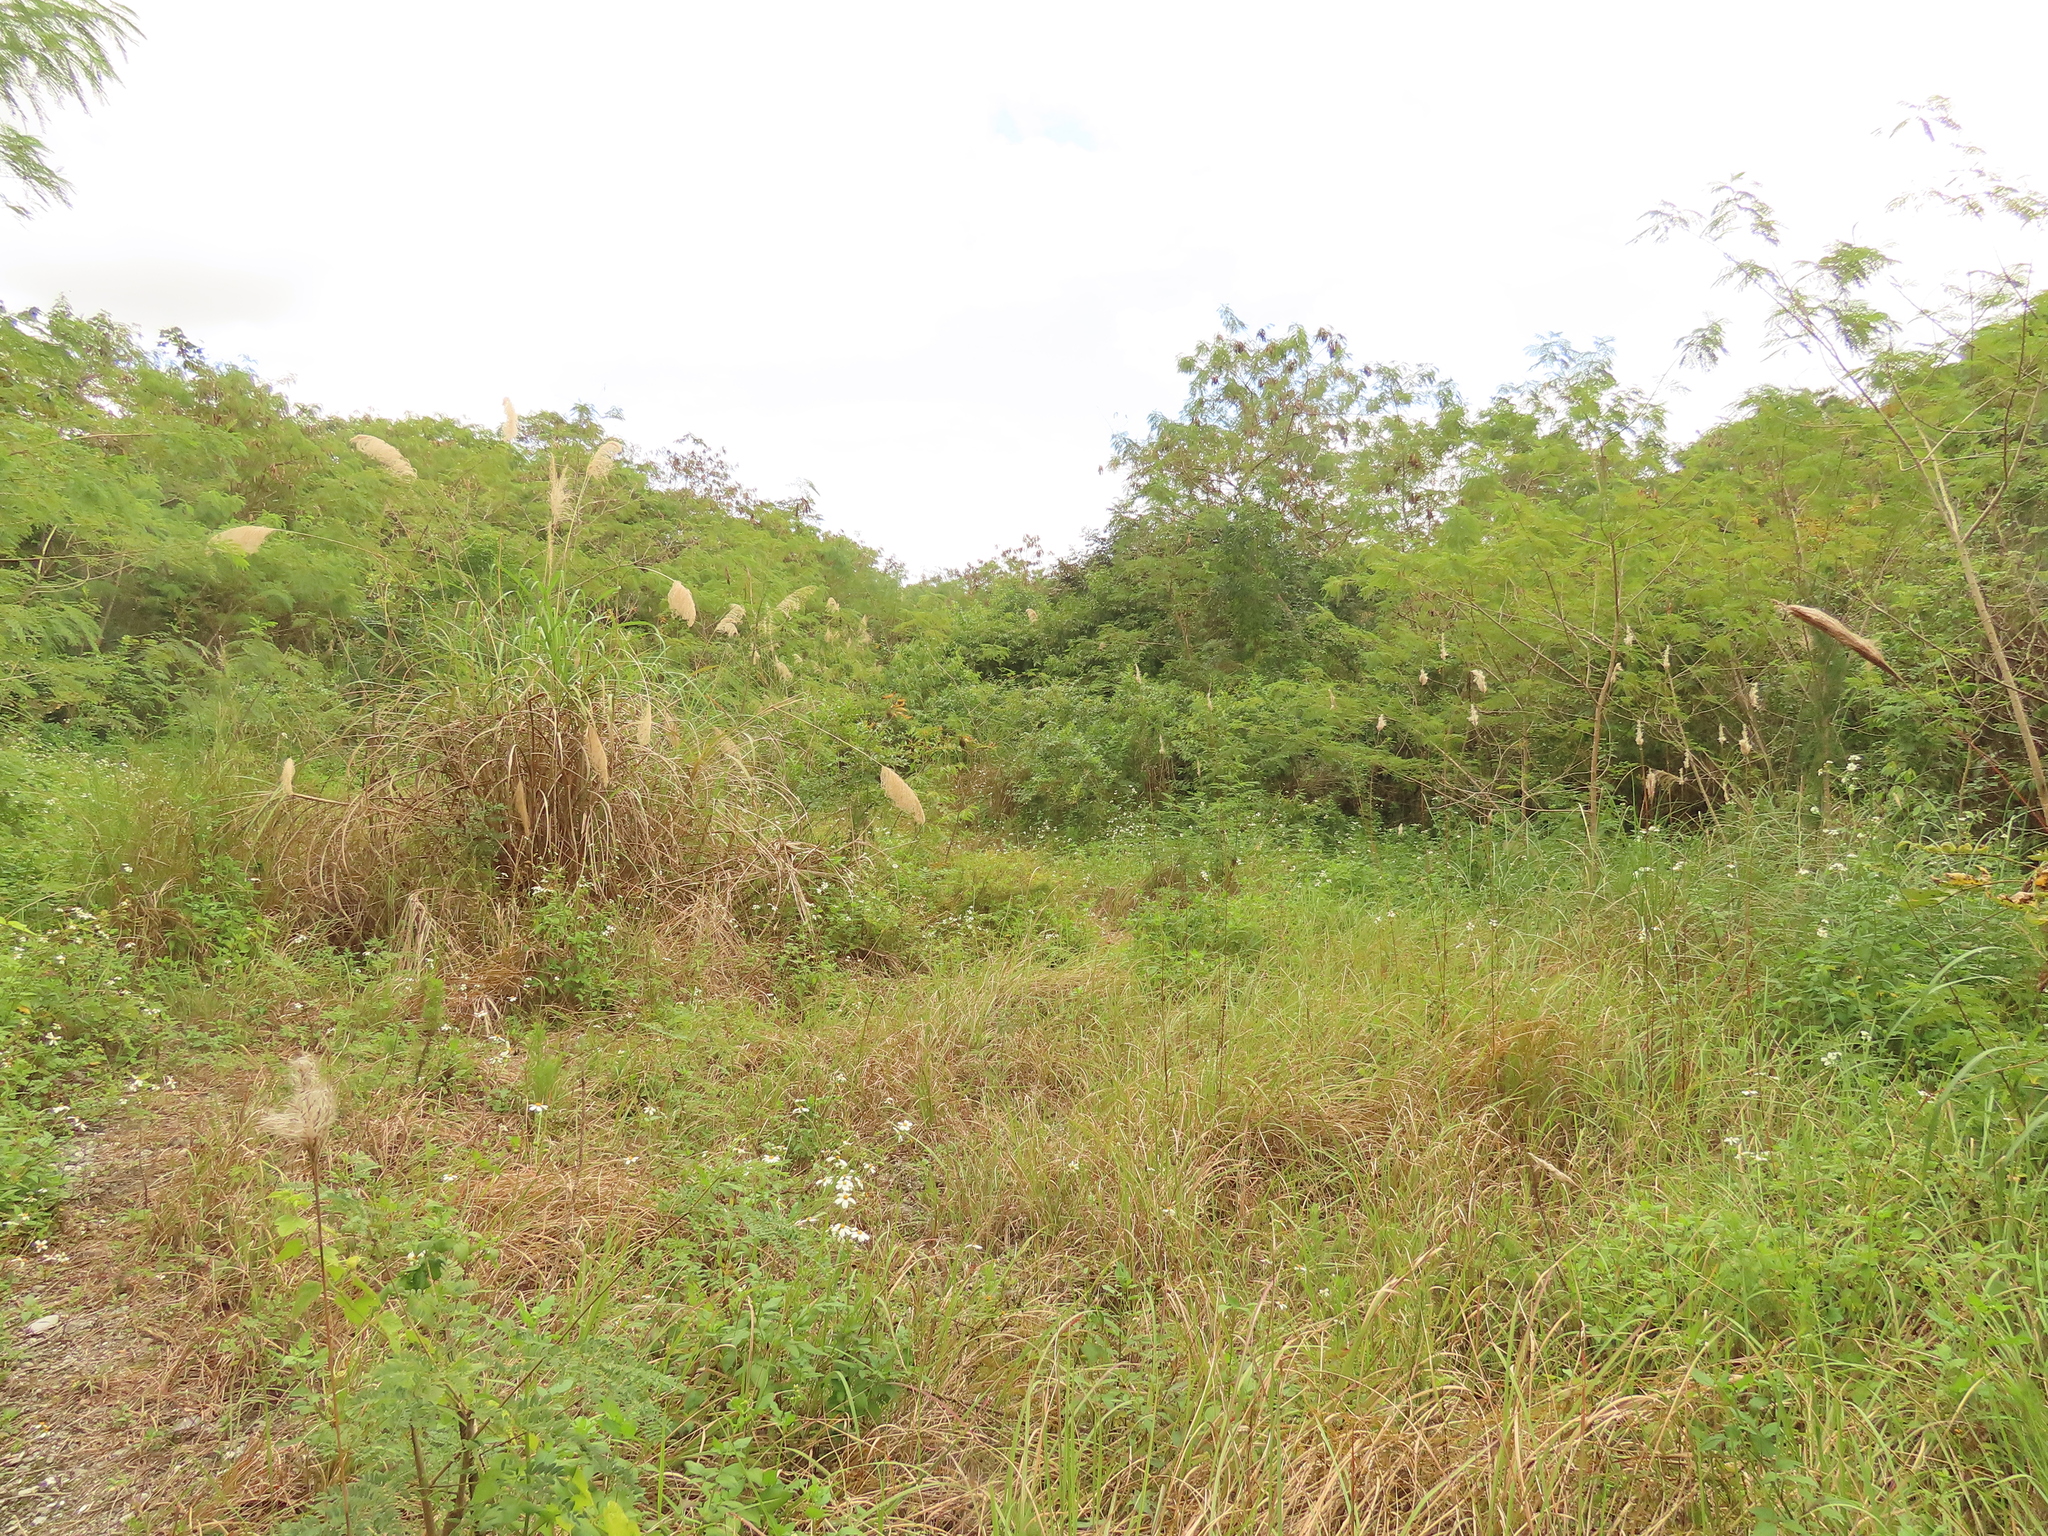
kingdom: Plantae
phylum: Tracheophyta
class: Liliopsida
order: Poales
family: Poaceae
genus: Miscanthus
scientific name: Miscanthus sinensis
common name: Chinese silvergrass
